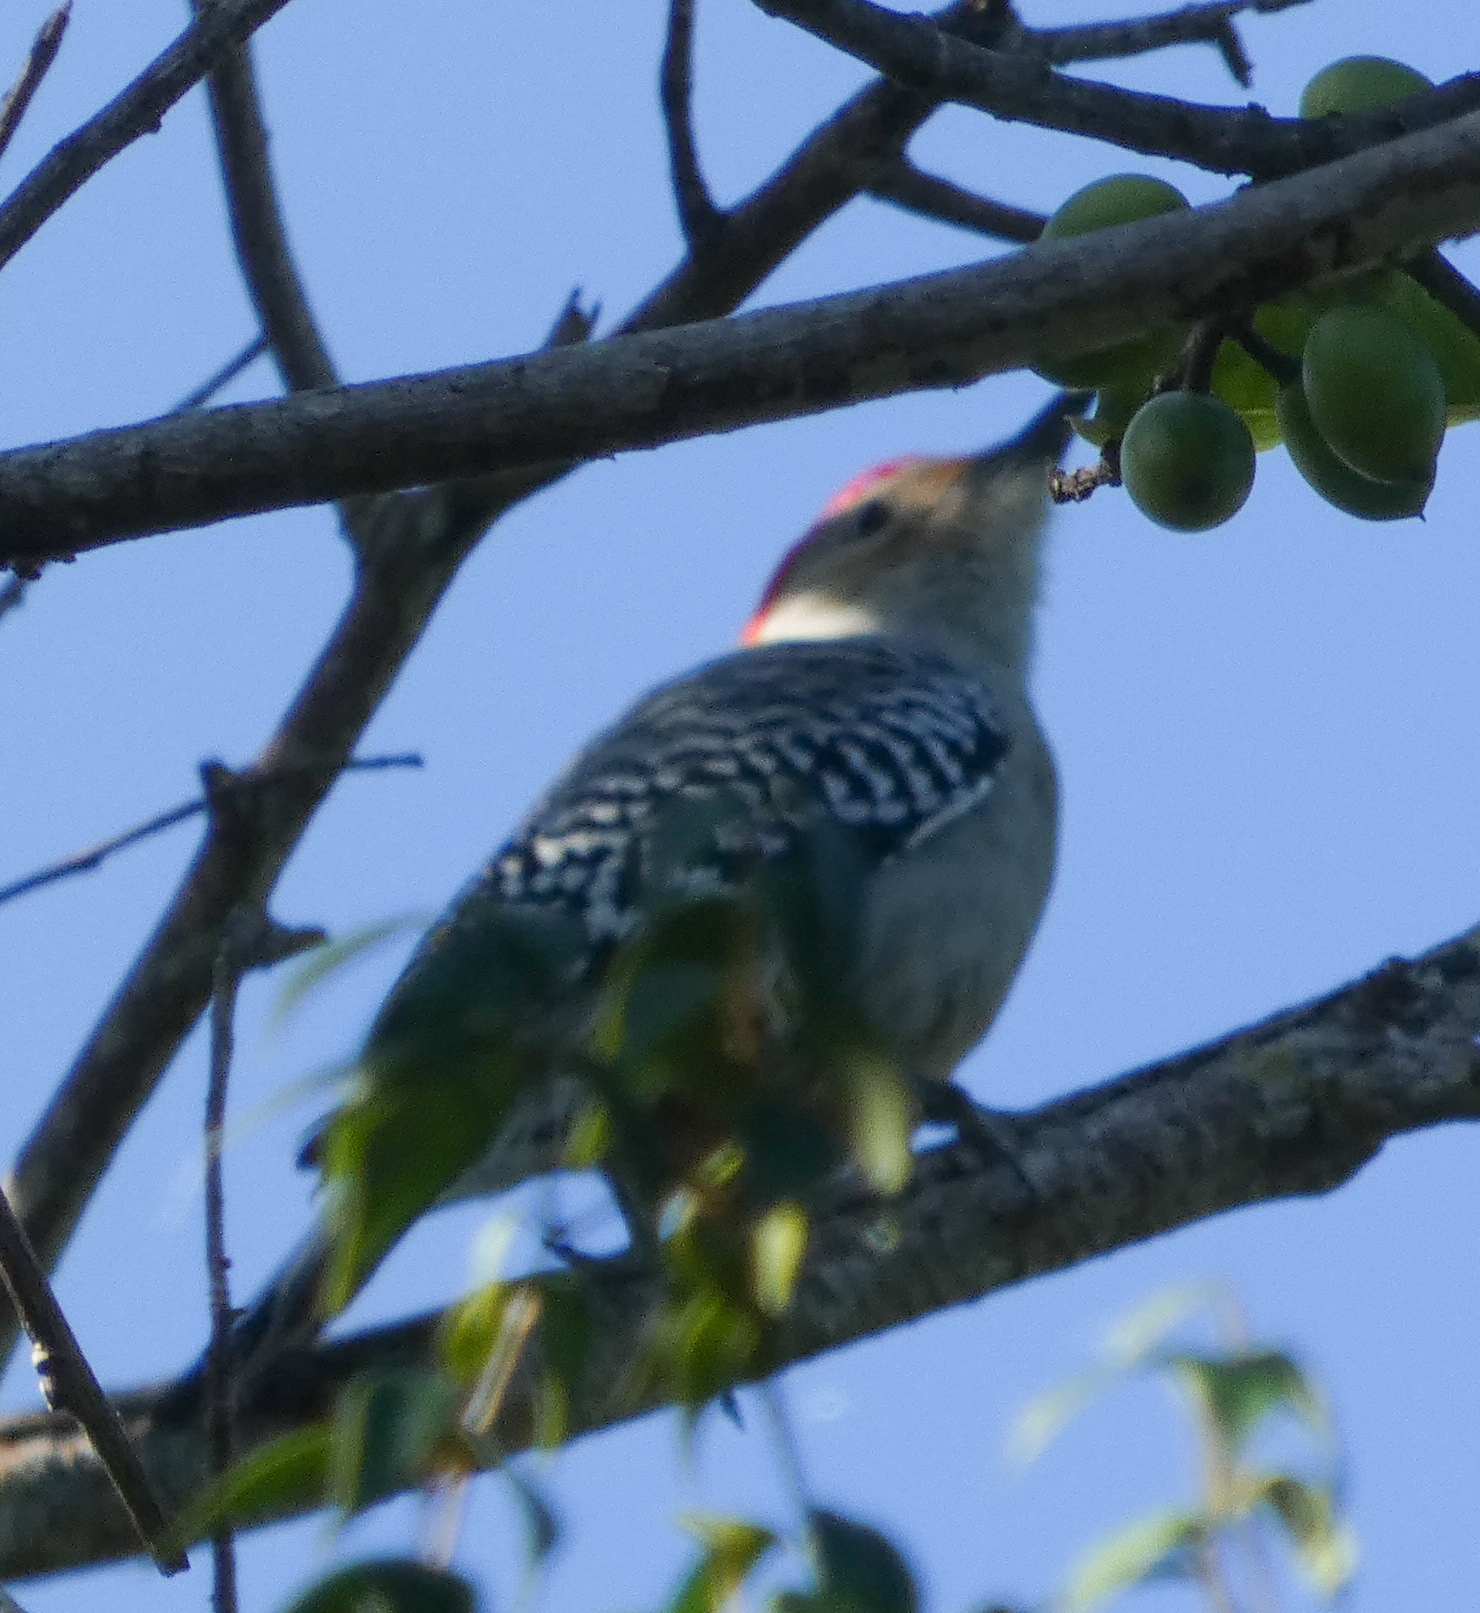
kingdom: Animalia
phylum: Chordata
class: Aves
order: Piciformes
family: Picidae
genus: Melanerpes
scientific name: Melanerpes carolinus
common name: Red-bellied woodpecker
